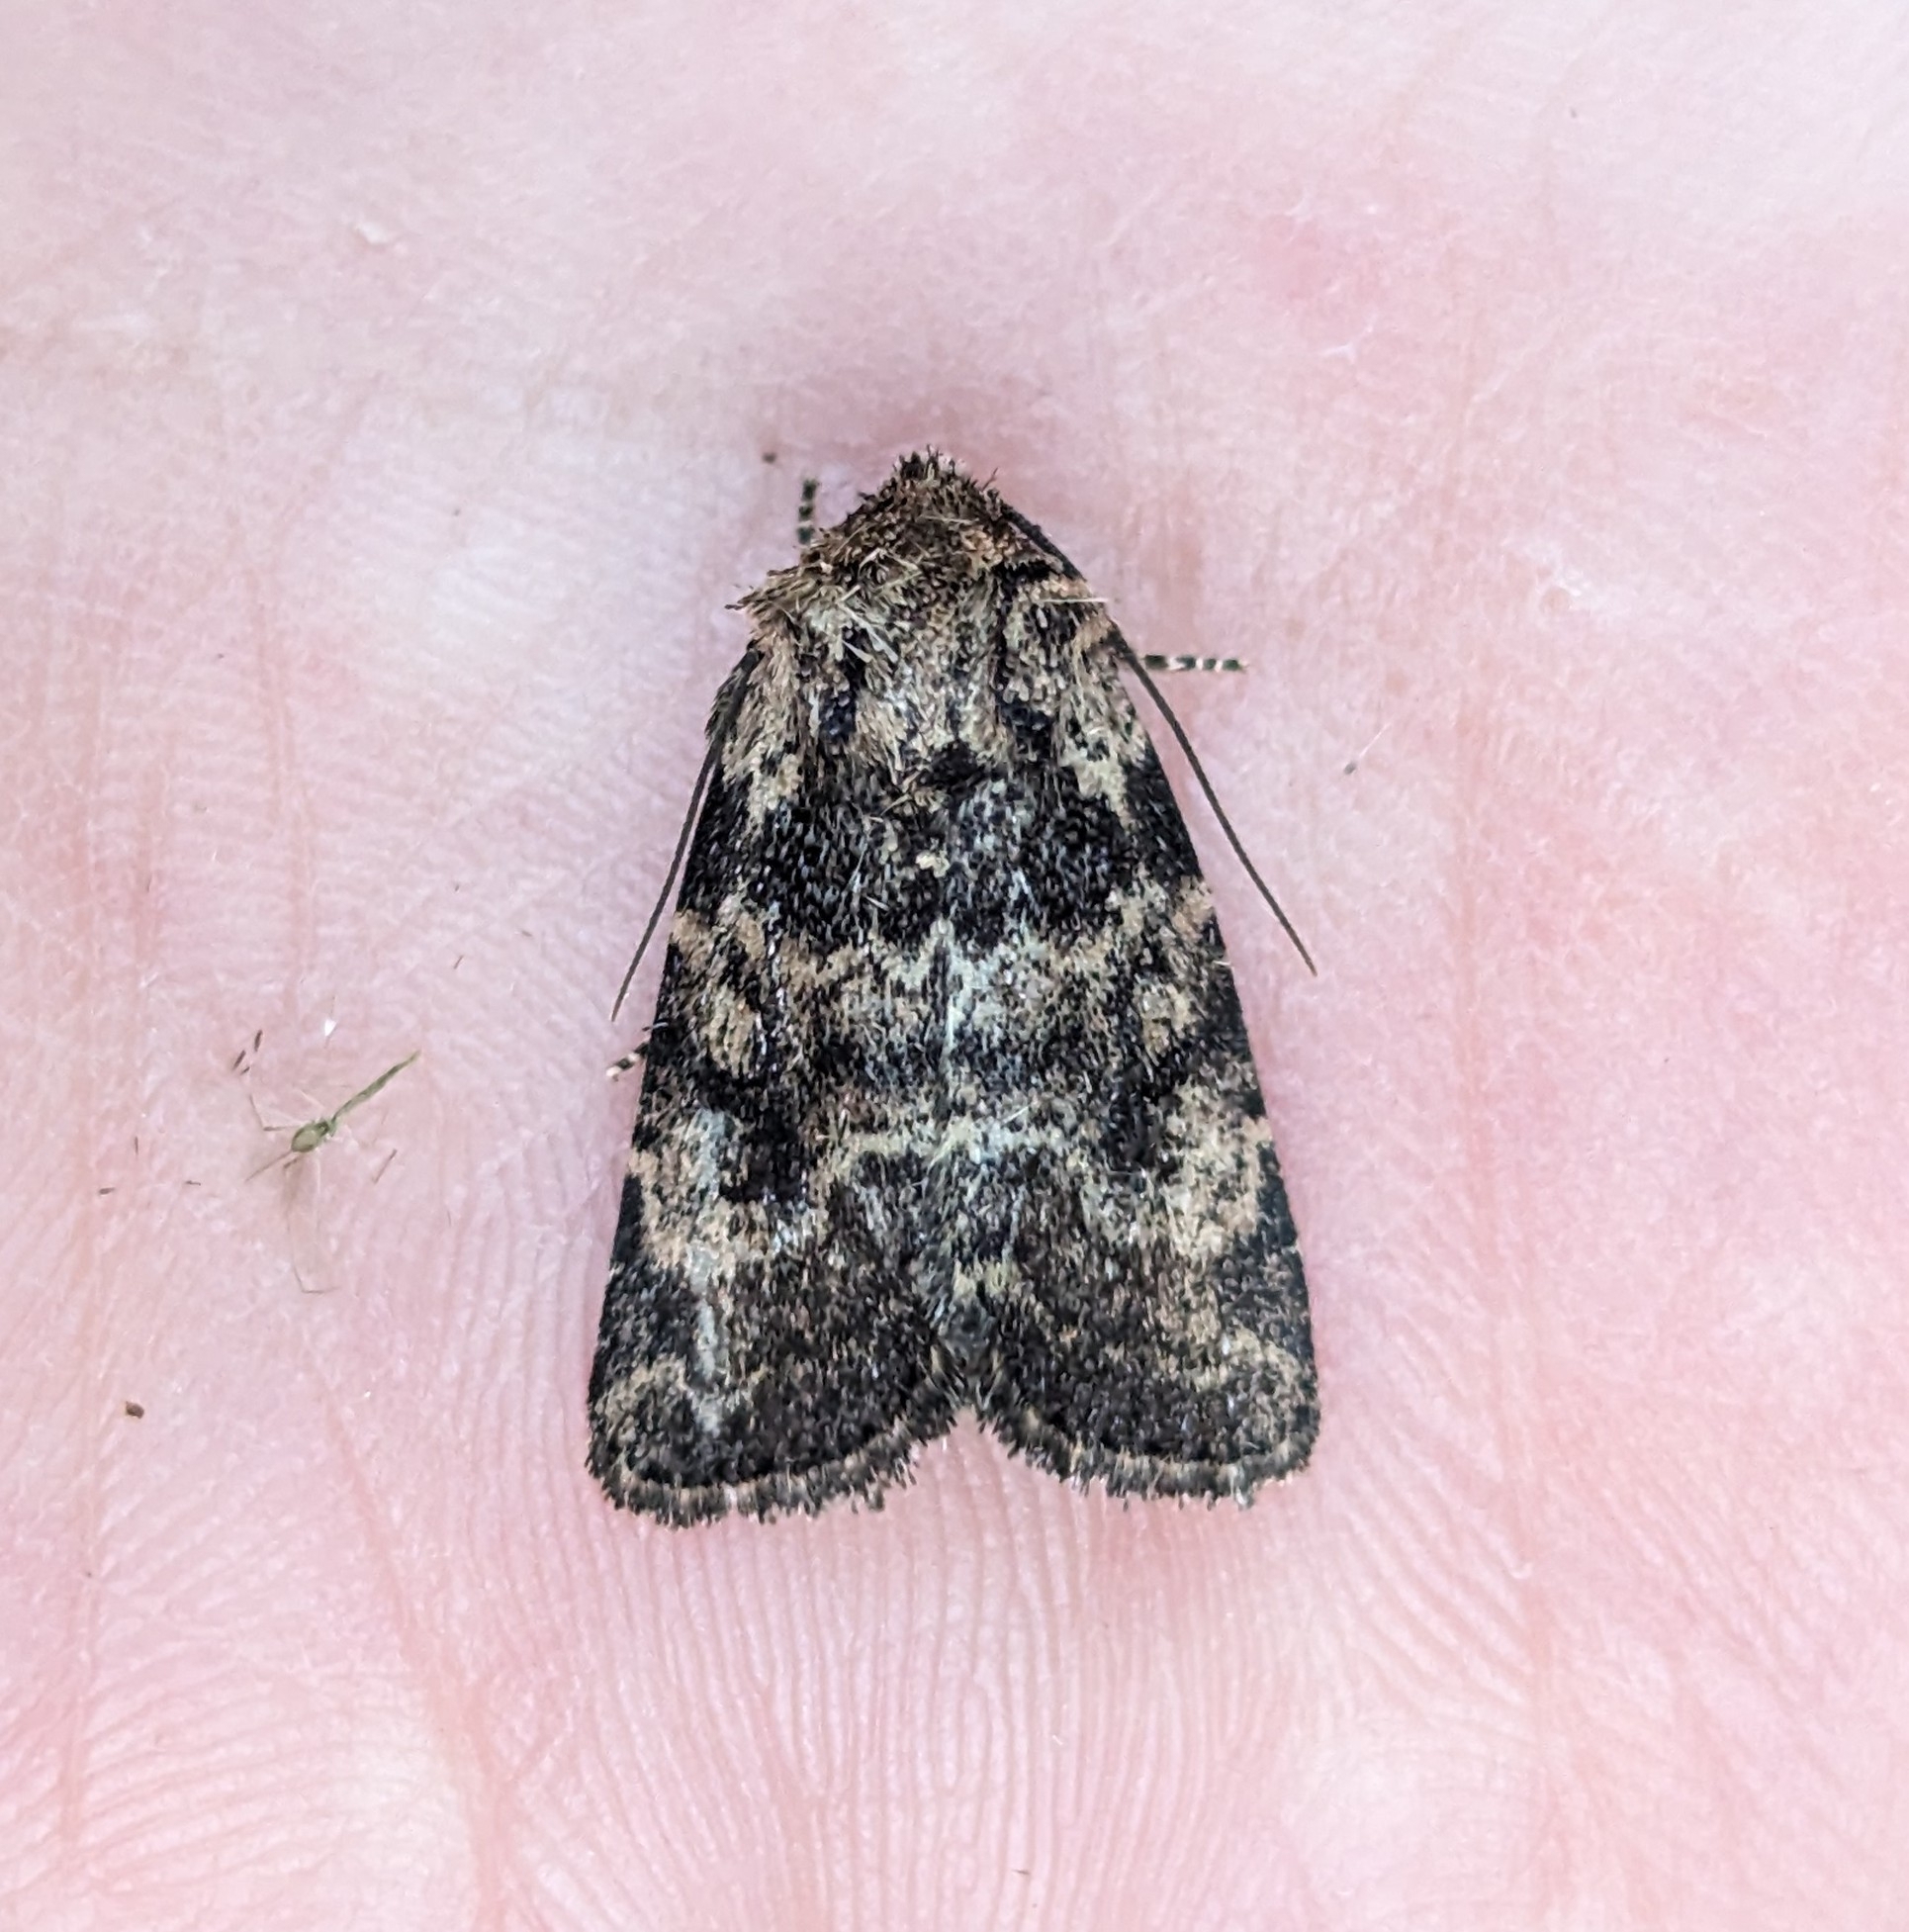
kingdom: Animalia
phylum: Arthropoda
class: Insecta
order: Lepidoptera
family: Noctuidae
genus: Homorthodes
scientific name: Homorthodes hanhami
